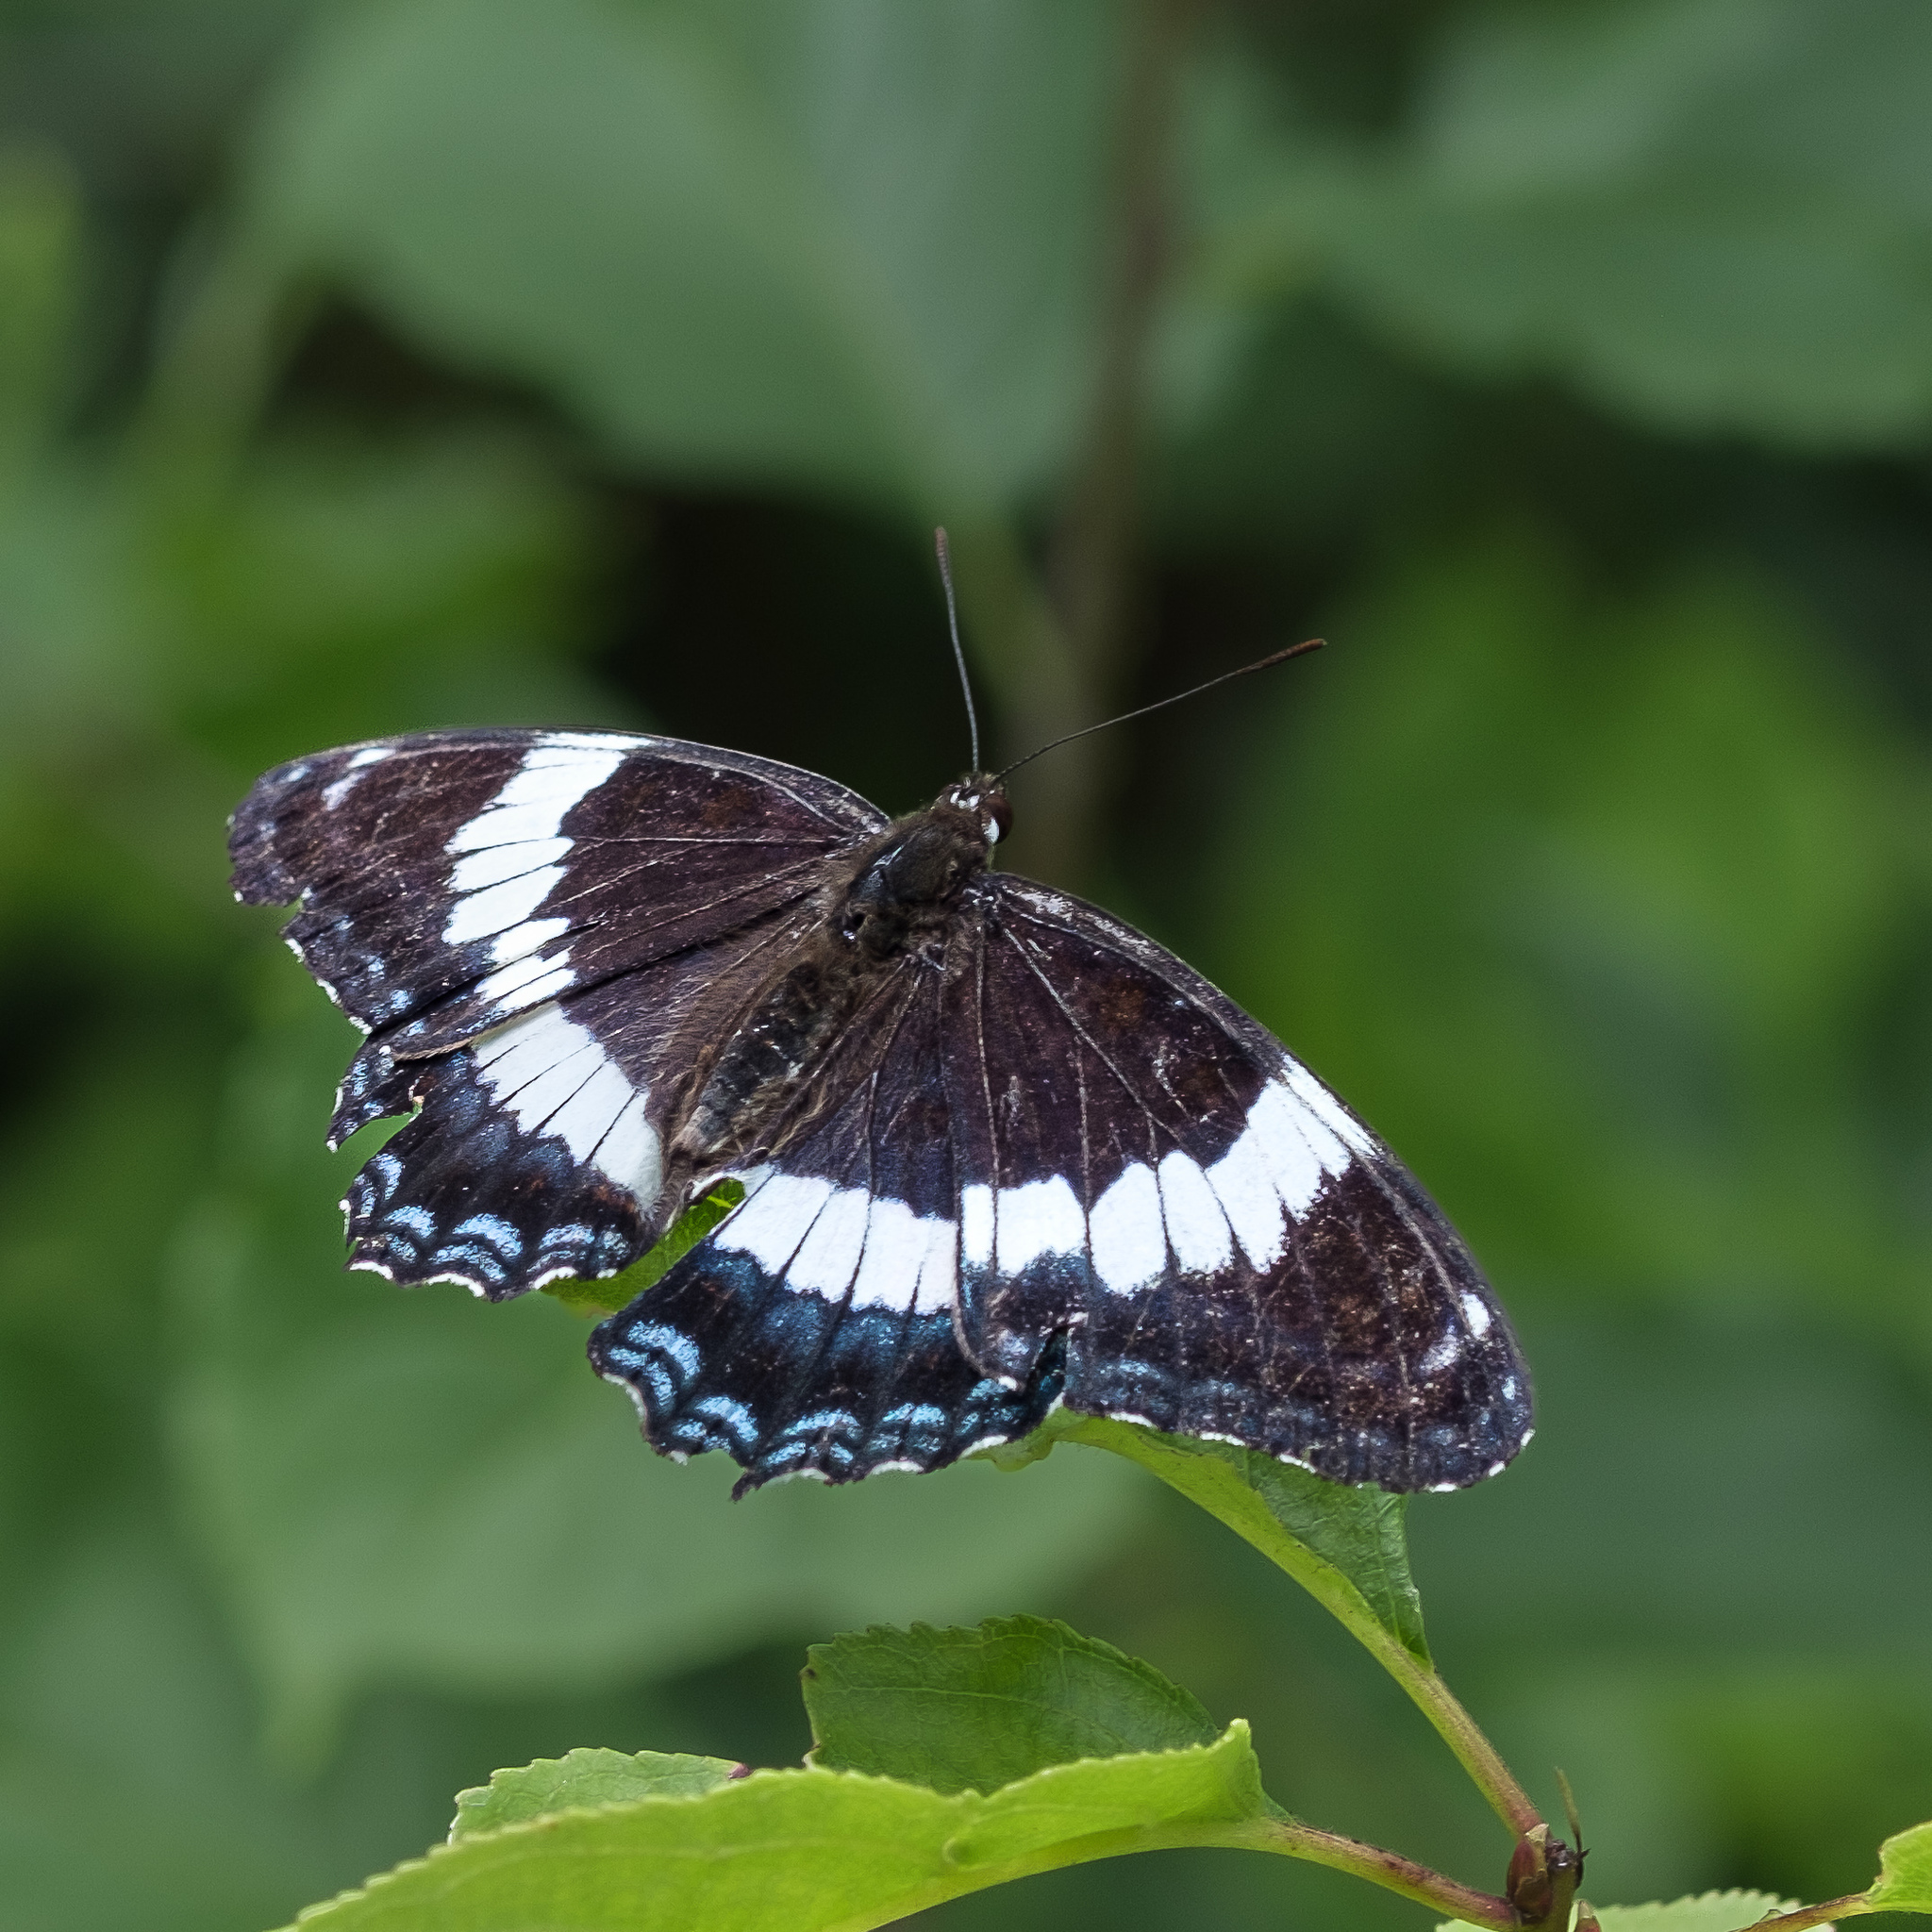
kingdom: Animalia
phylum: Arthropoda
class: Insecta
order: Lepidoptera
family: Nymphalidae
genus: Limenitis
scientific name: Limenitis arthemis
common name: Red-spotted admiral
